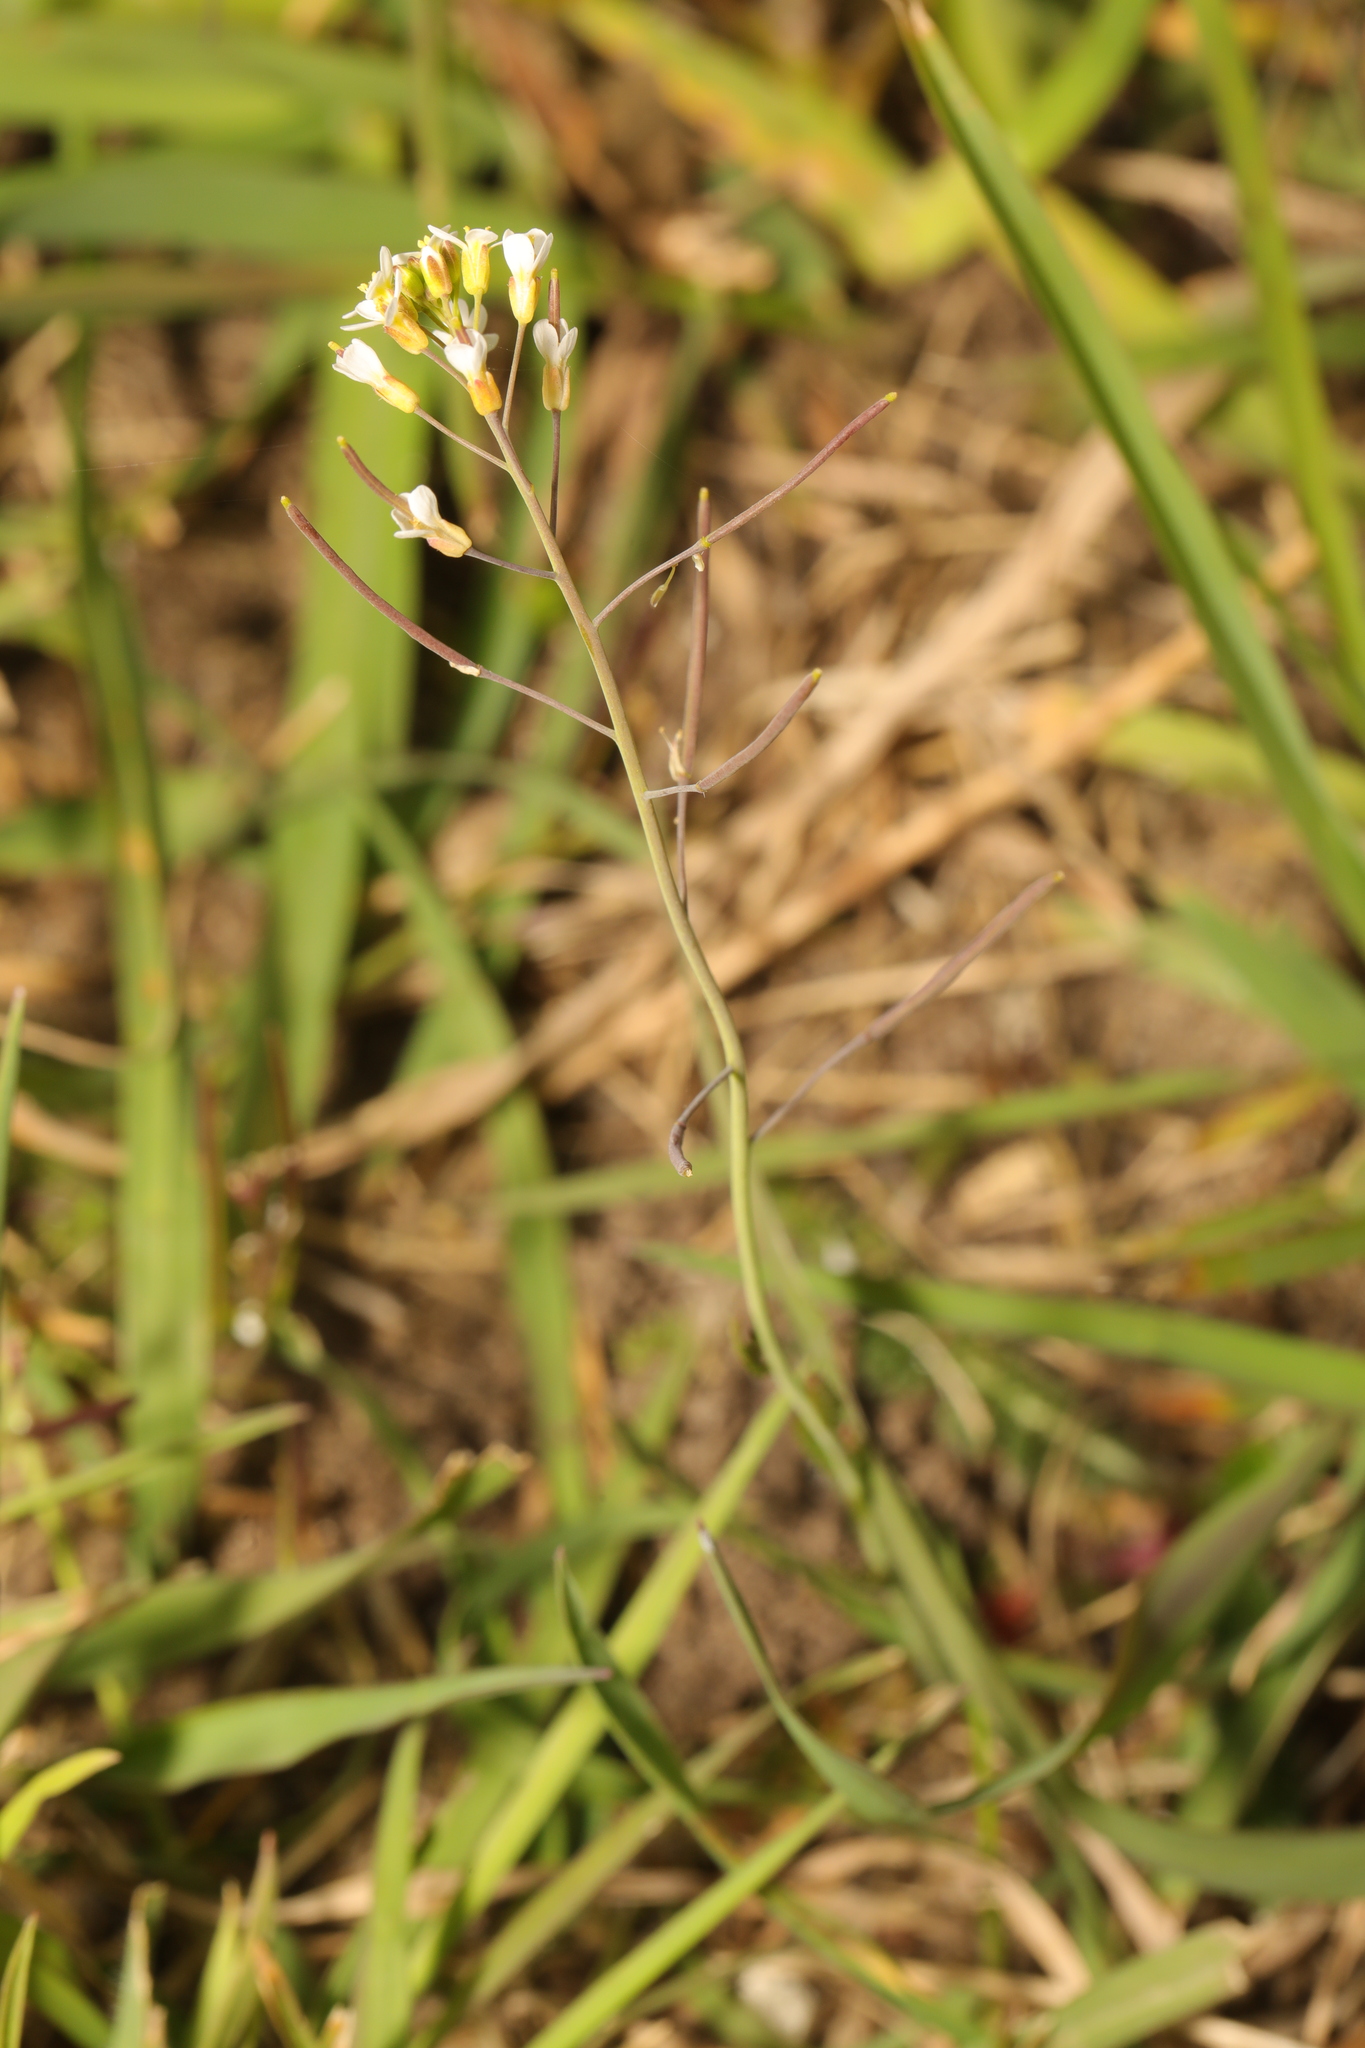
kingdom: Plantae
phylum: Tracheophyta
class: Magnoliopsida
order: Brassicales
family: Brassicaceae
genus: Arabidopsis
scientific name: Arabidopsis thaliana
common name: Thale cress
